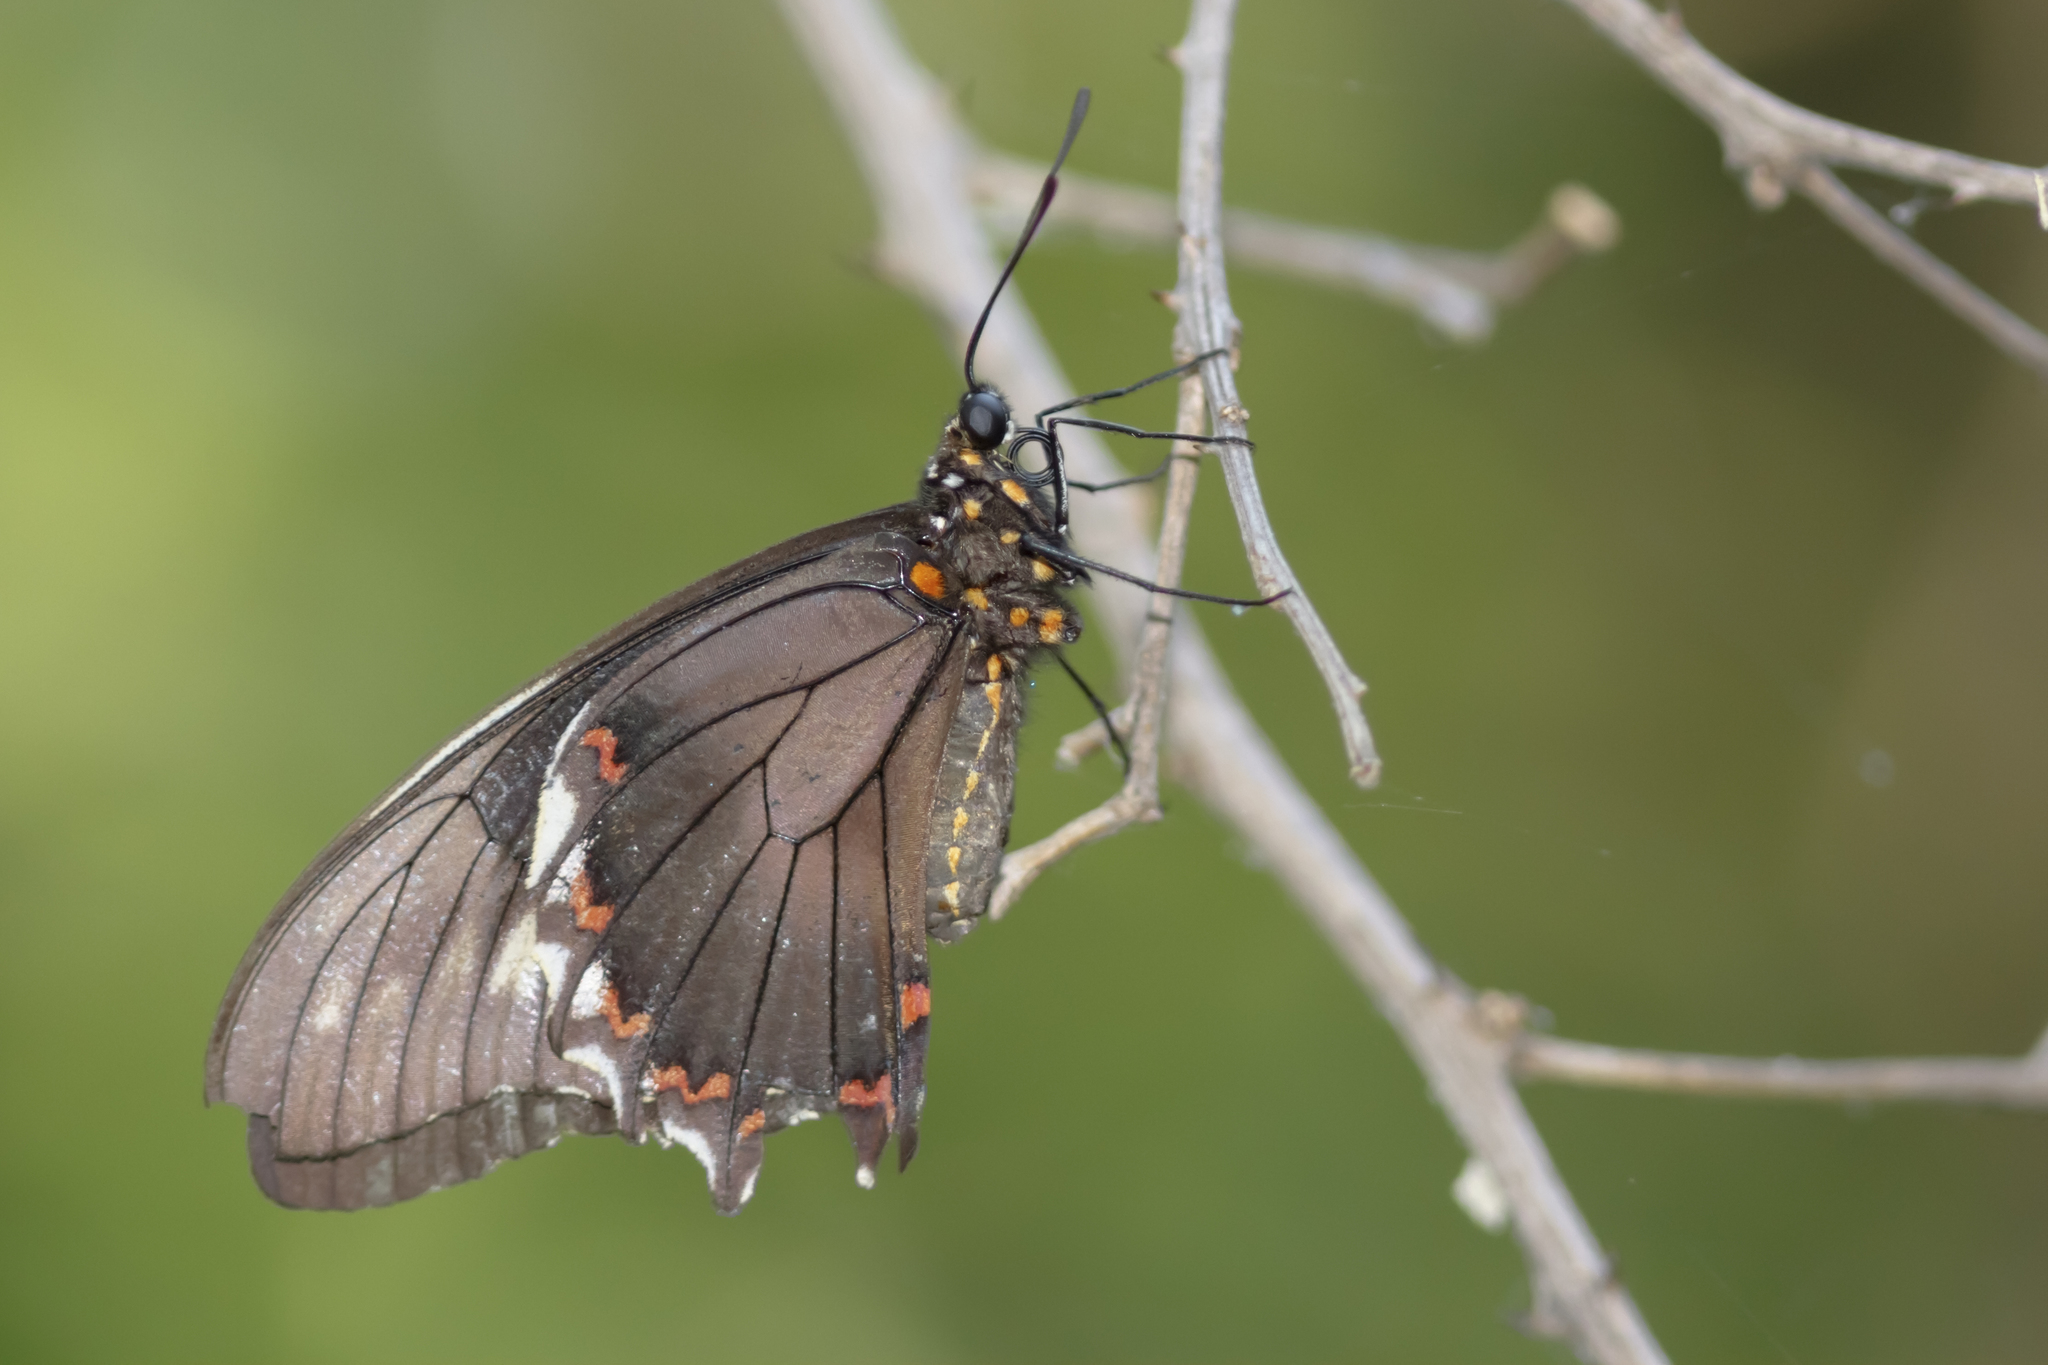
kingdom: Animalia
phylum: Arthropoda
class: Insecta
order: Lepidoptera
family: Papilionidae
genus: Battus
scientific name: Battus polydamas
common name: Polydamas swallowtail
